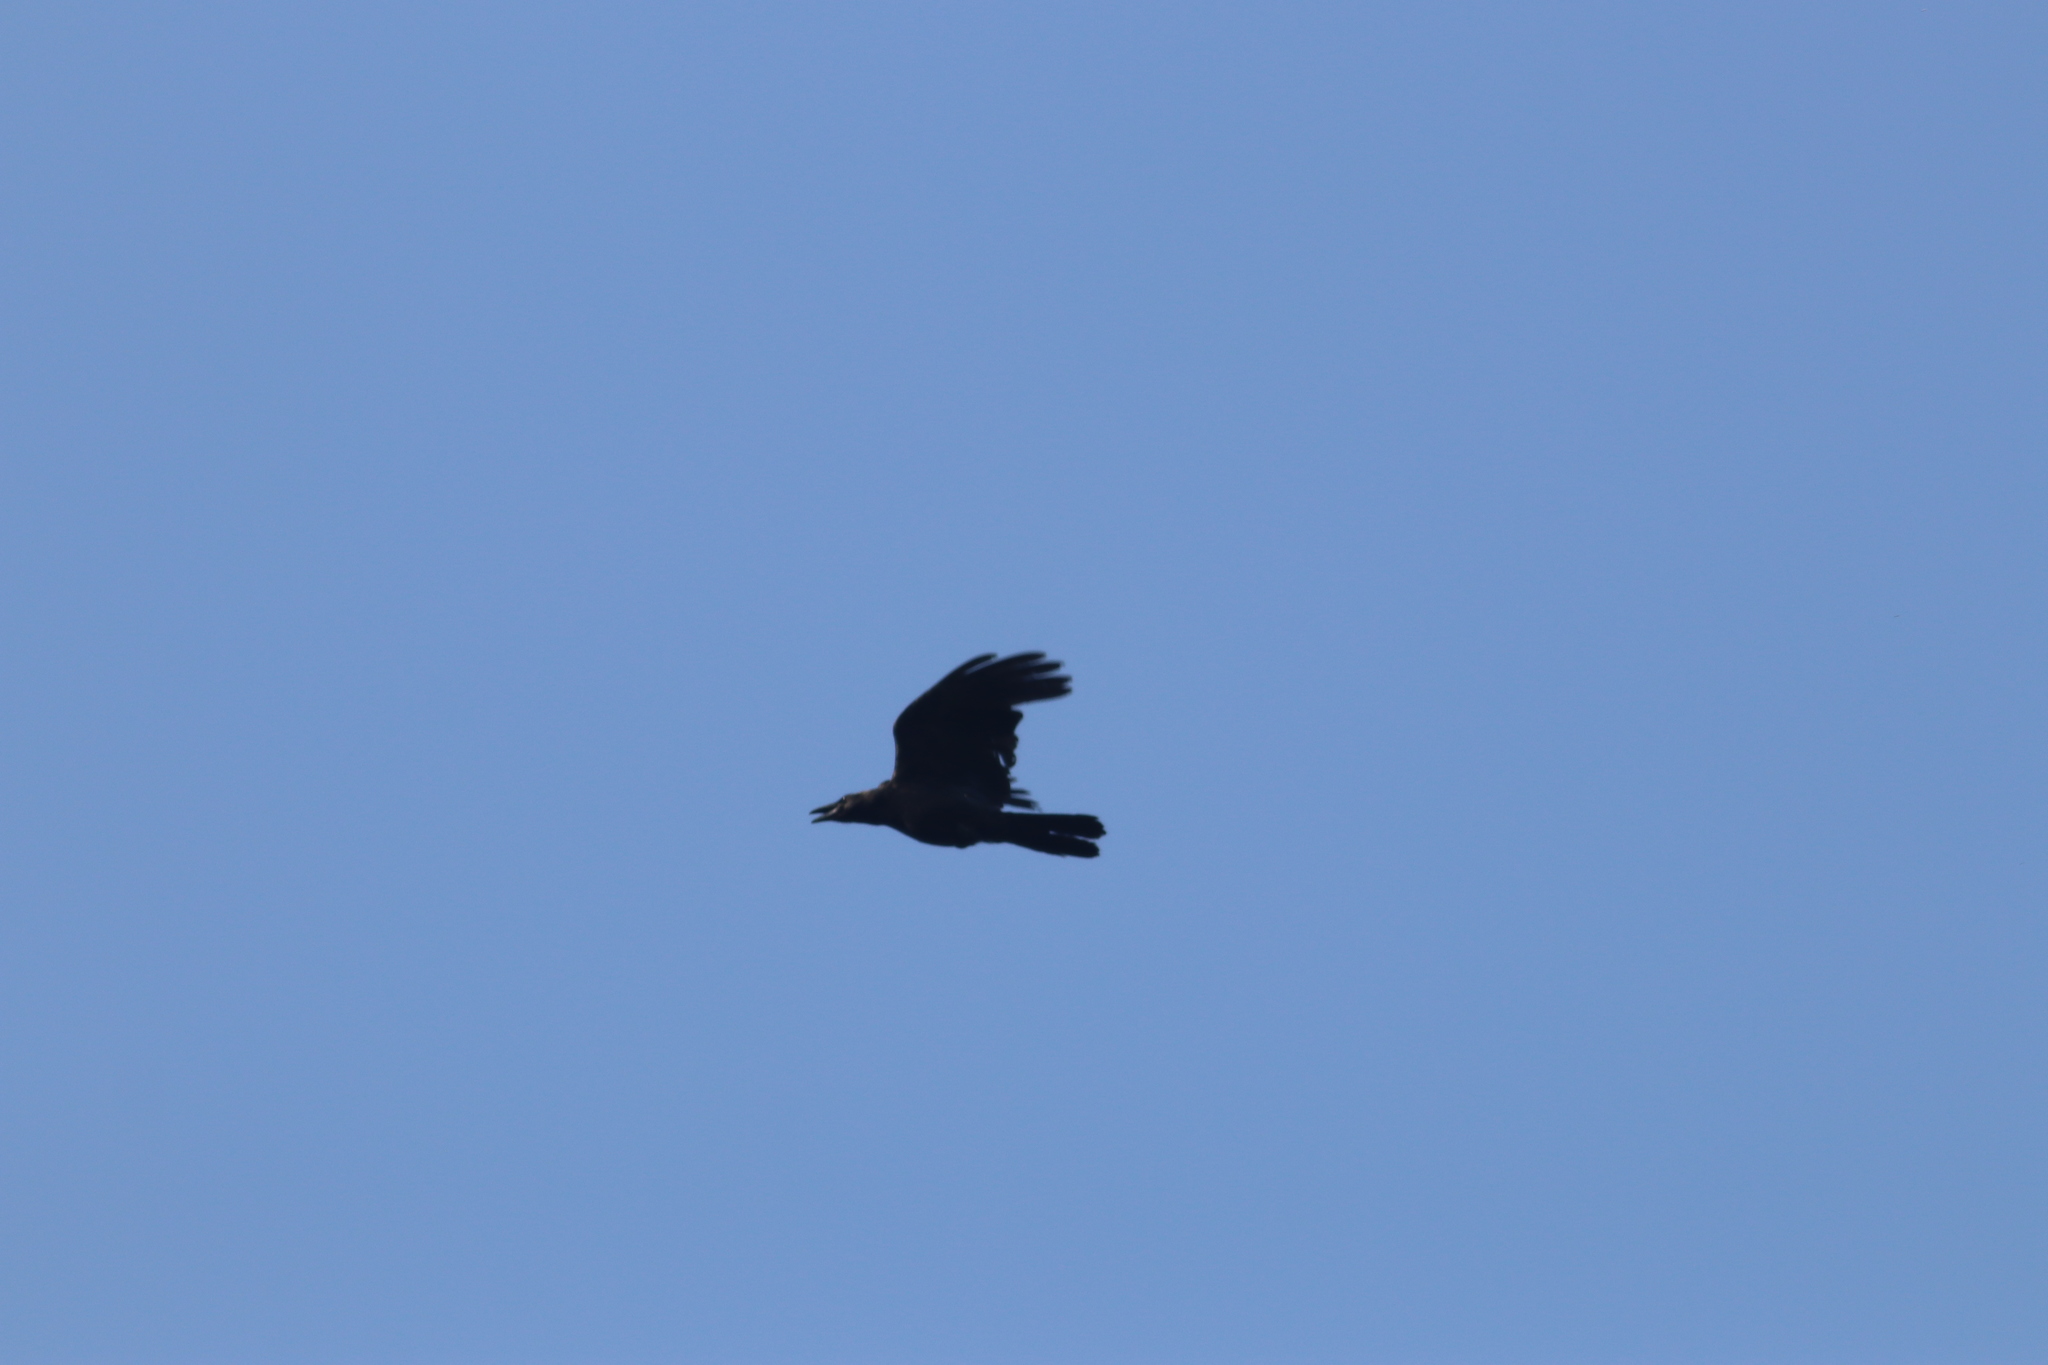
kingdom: Animalia
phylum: Chordata
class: Aves
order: Passeriformes
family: Corvidae
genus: Corvus
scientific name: Corvus macrorhynchos
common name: Large-billed crow
